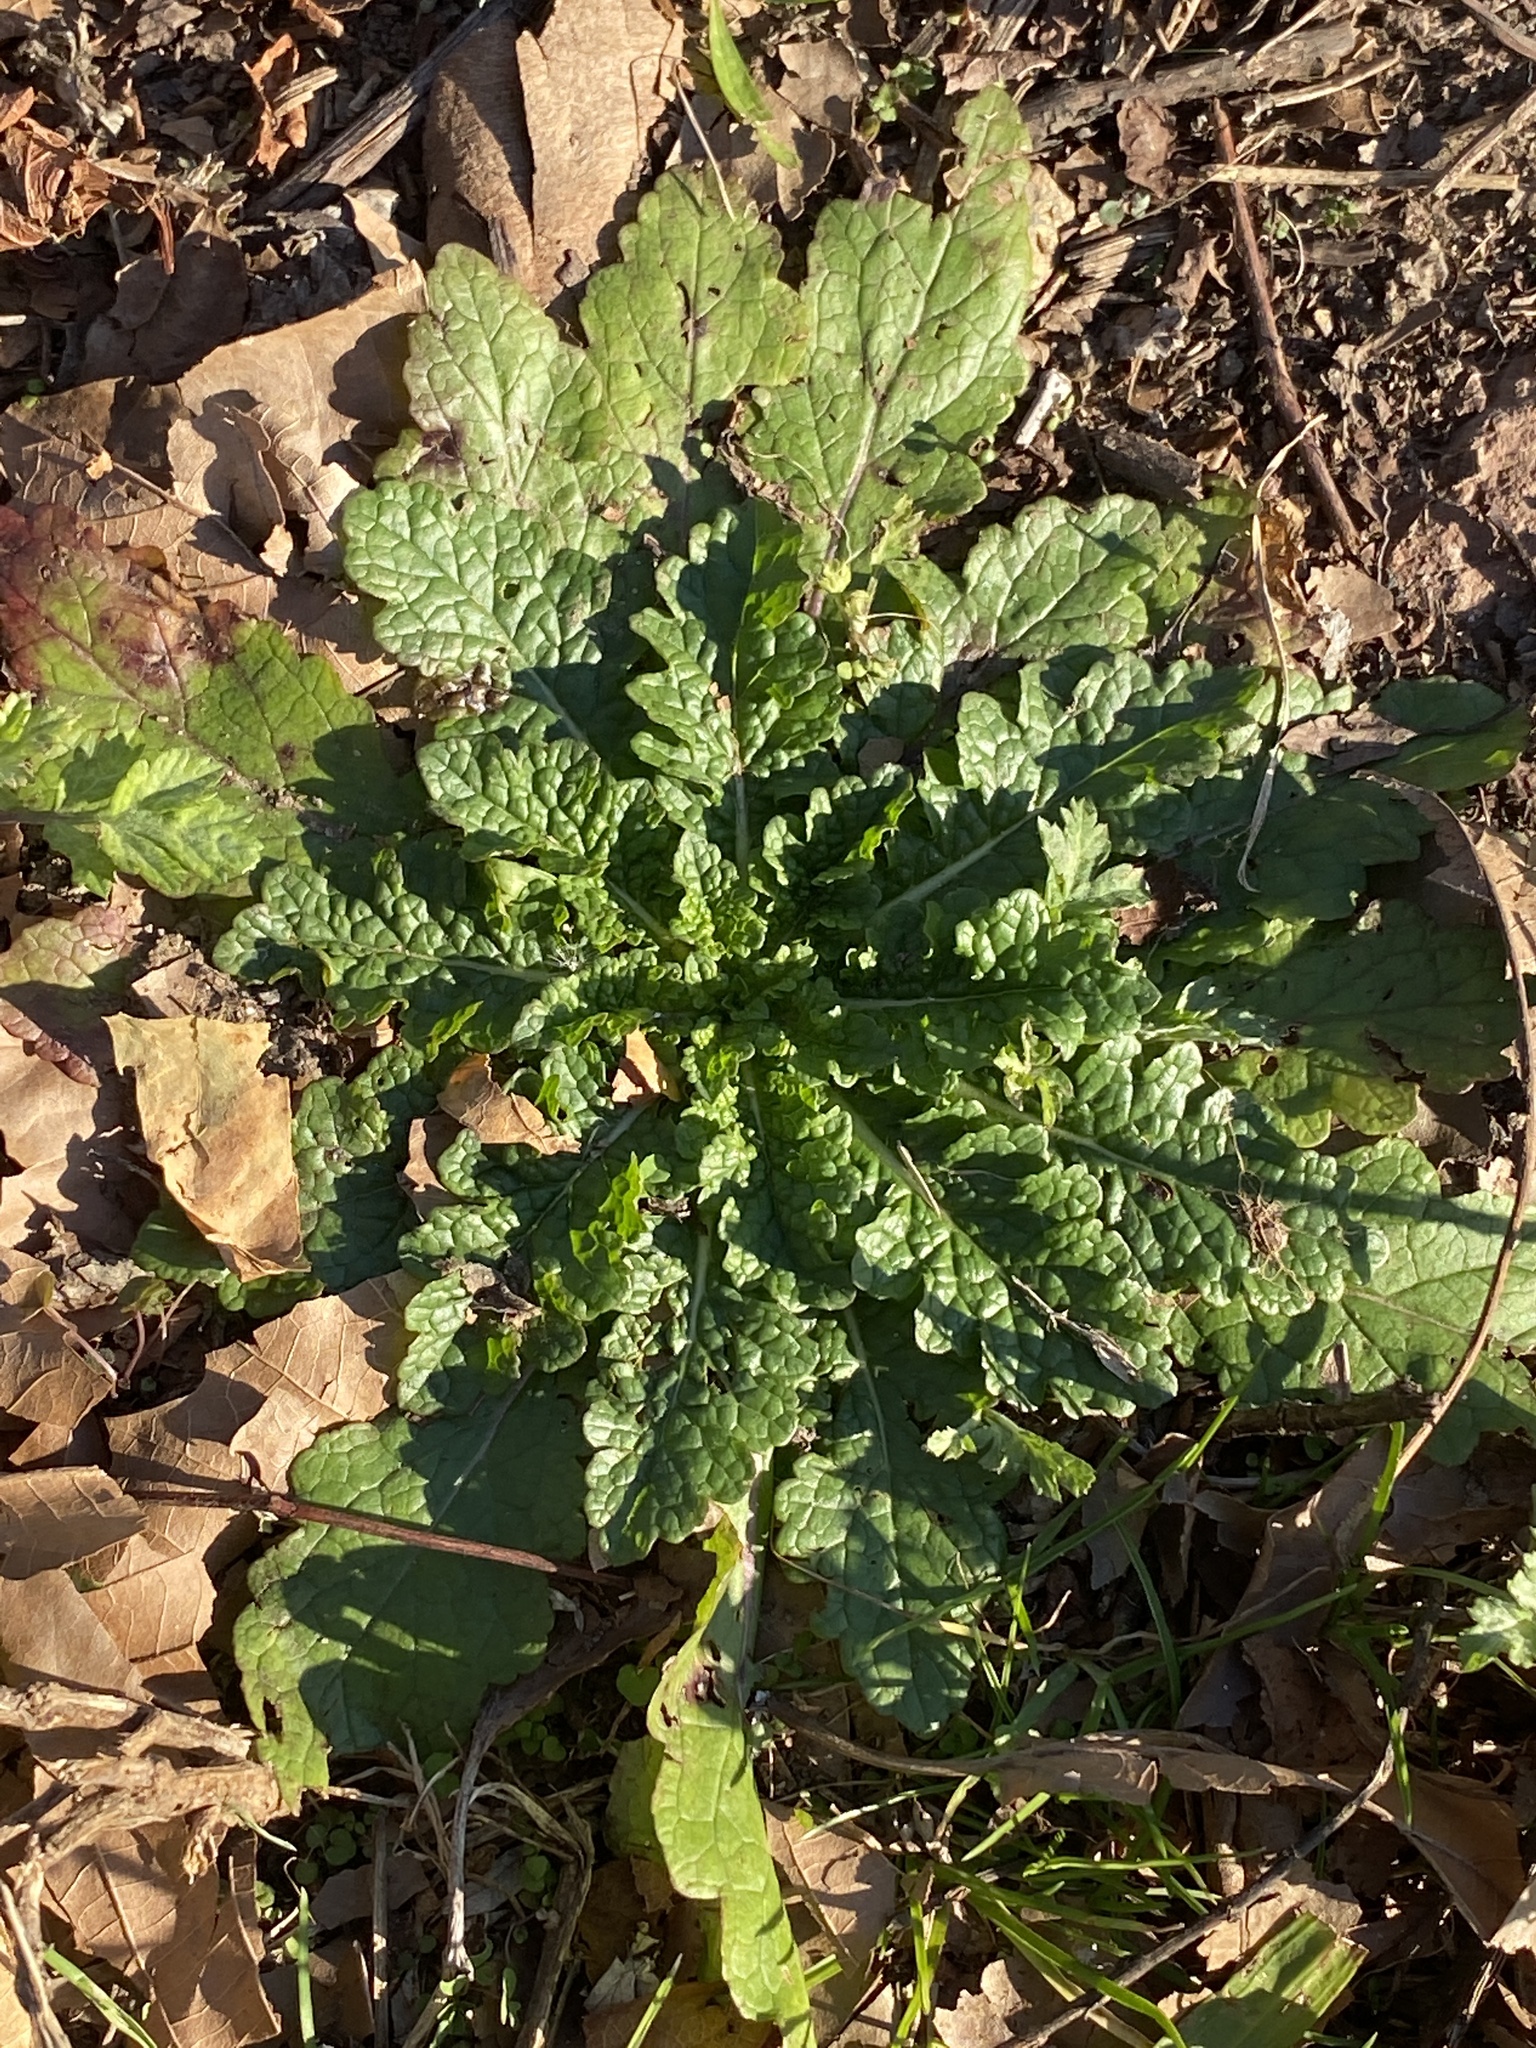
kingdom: Plantae
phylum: Tracheophyta
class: Magnoliopsida
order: Lamiales
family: Scrophulariaceae
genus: Verbascum
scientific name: Verbascum blattaria
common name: Moth mullein
